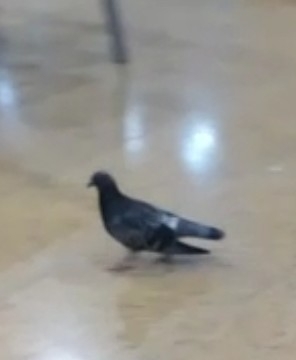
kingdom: Animalia
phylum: Chordata
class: Aves
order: Columbiformes
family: Columbidae
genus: Columba
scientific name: Columba livia
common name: Rock pigeon
